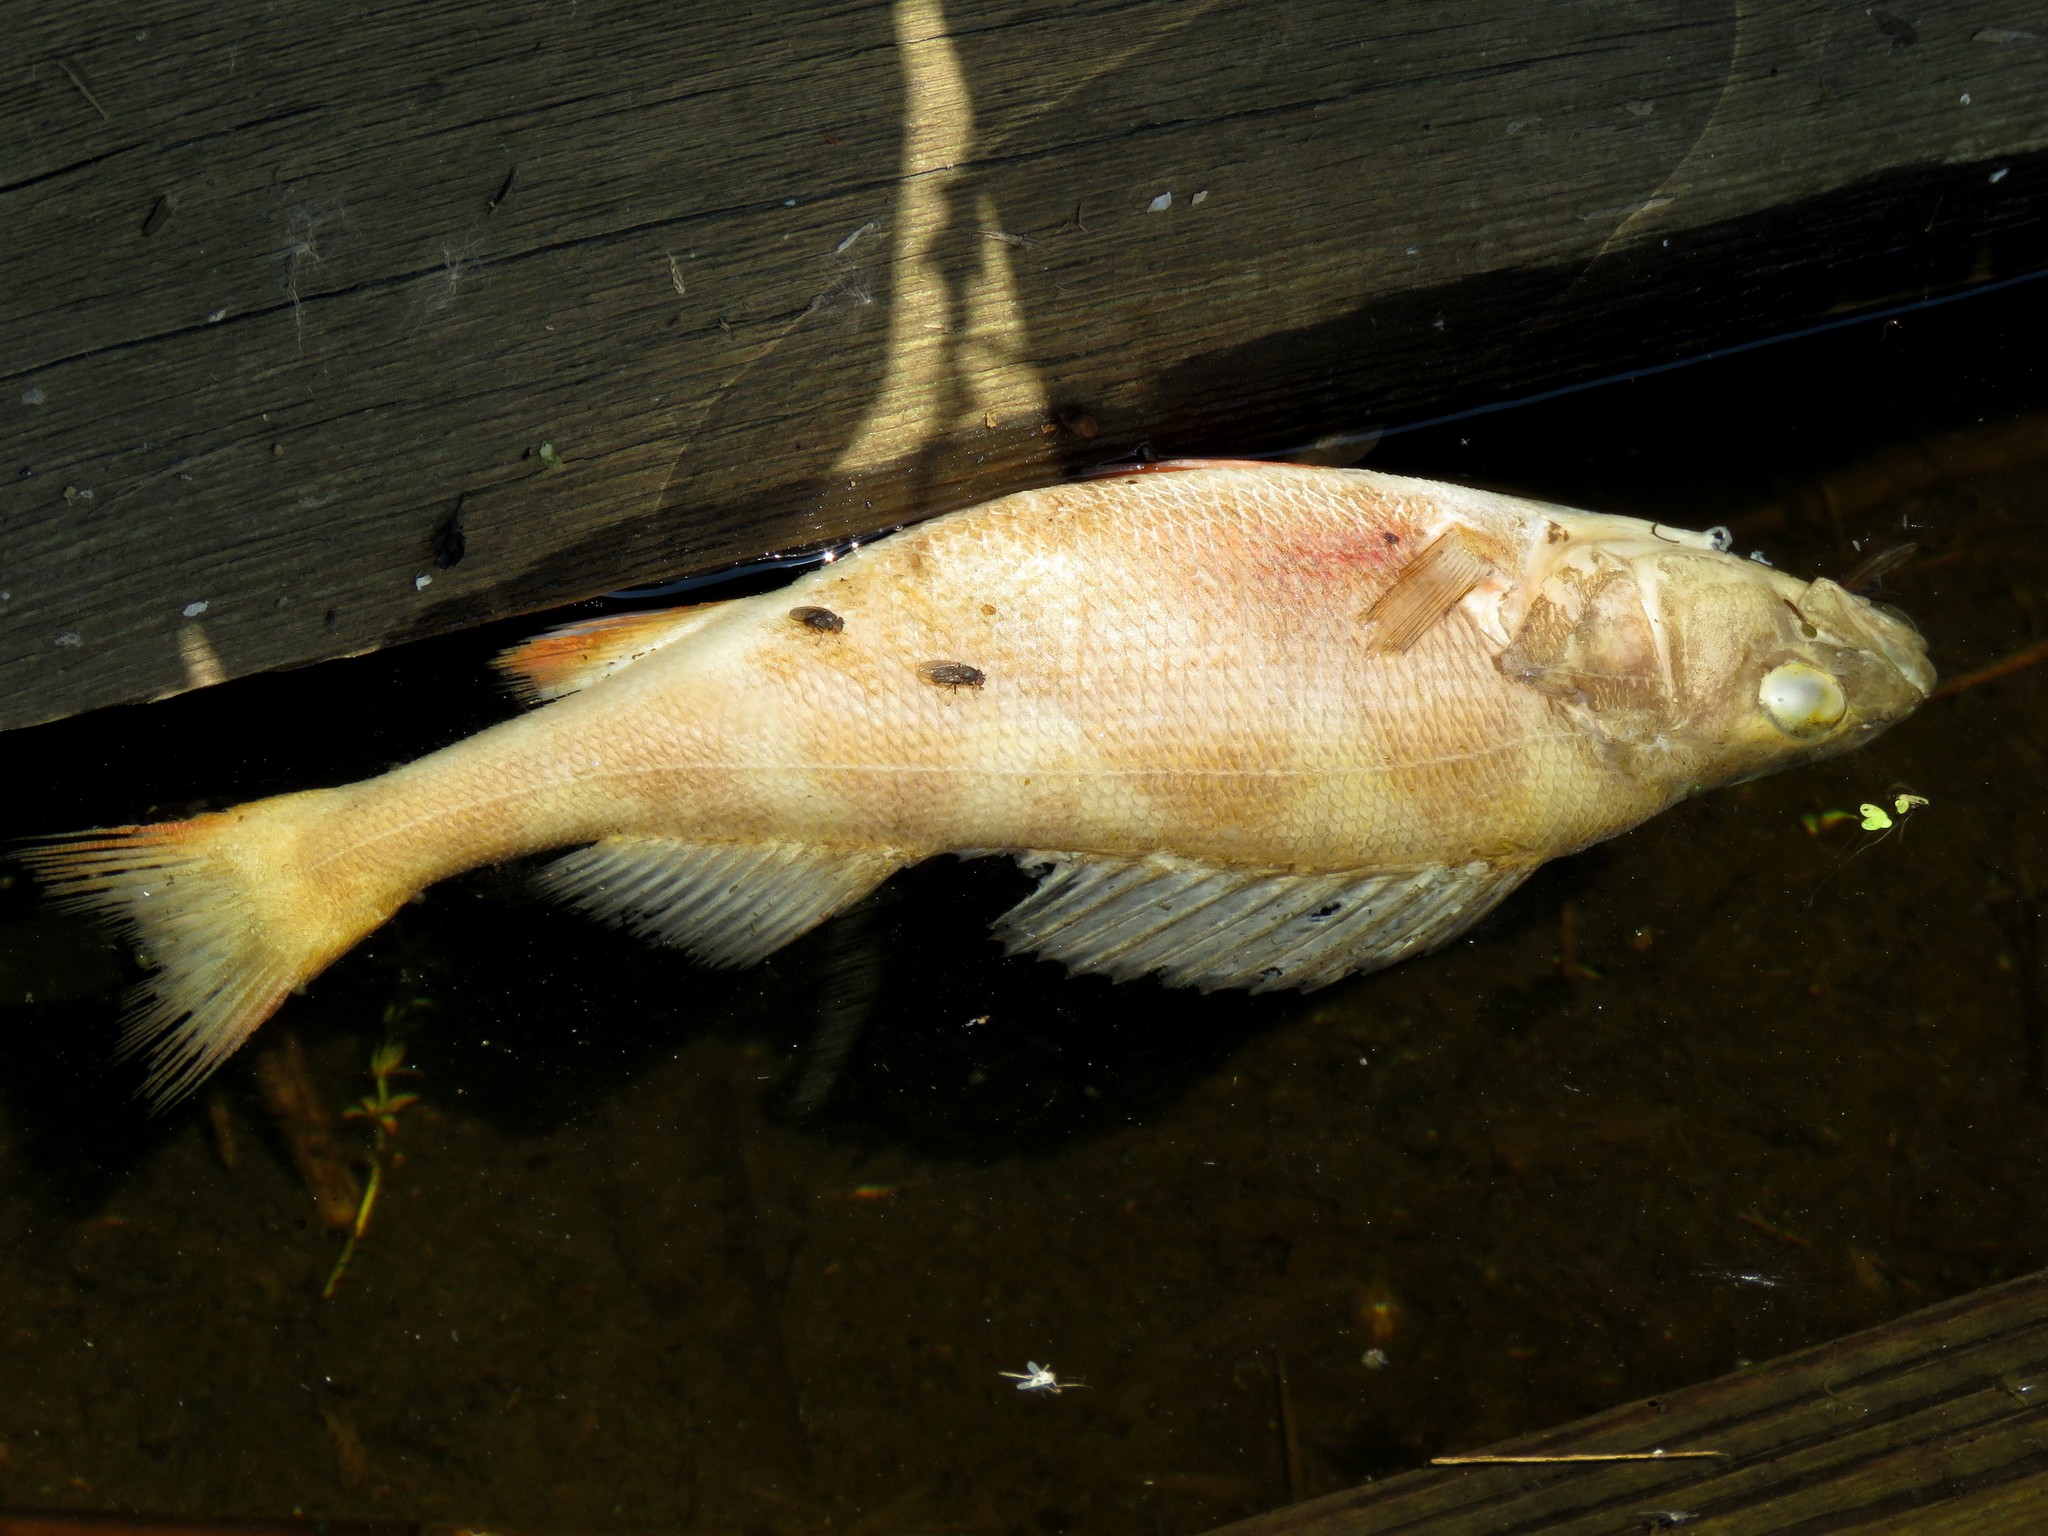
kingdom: Animalia
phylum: Chordata
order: Perciformes
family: Percidae
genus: Perca
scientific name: Perca fluviatilis
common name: Perch
